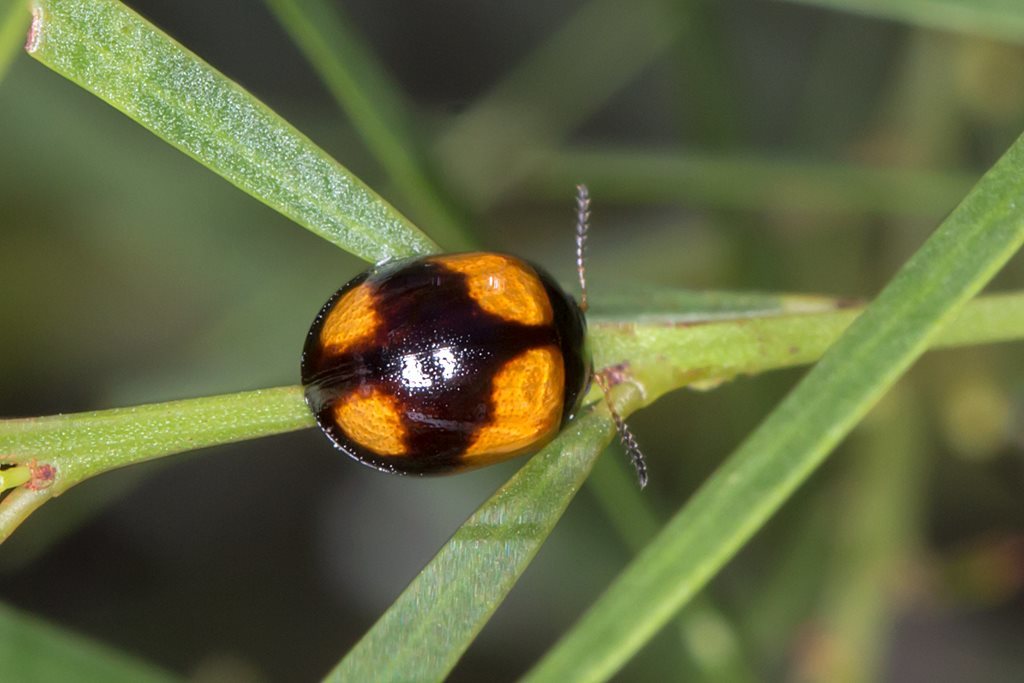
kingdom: Animalia
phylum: Arthropoda
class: Insecta
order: Coleoptera
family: Chrysomelidae
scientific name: Chrysomelidae
